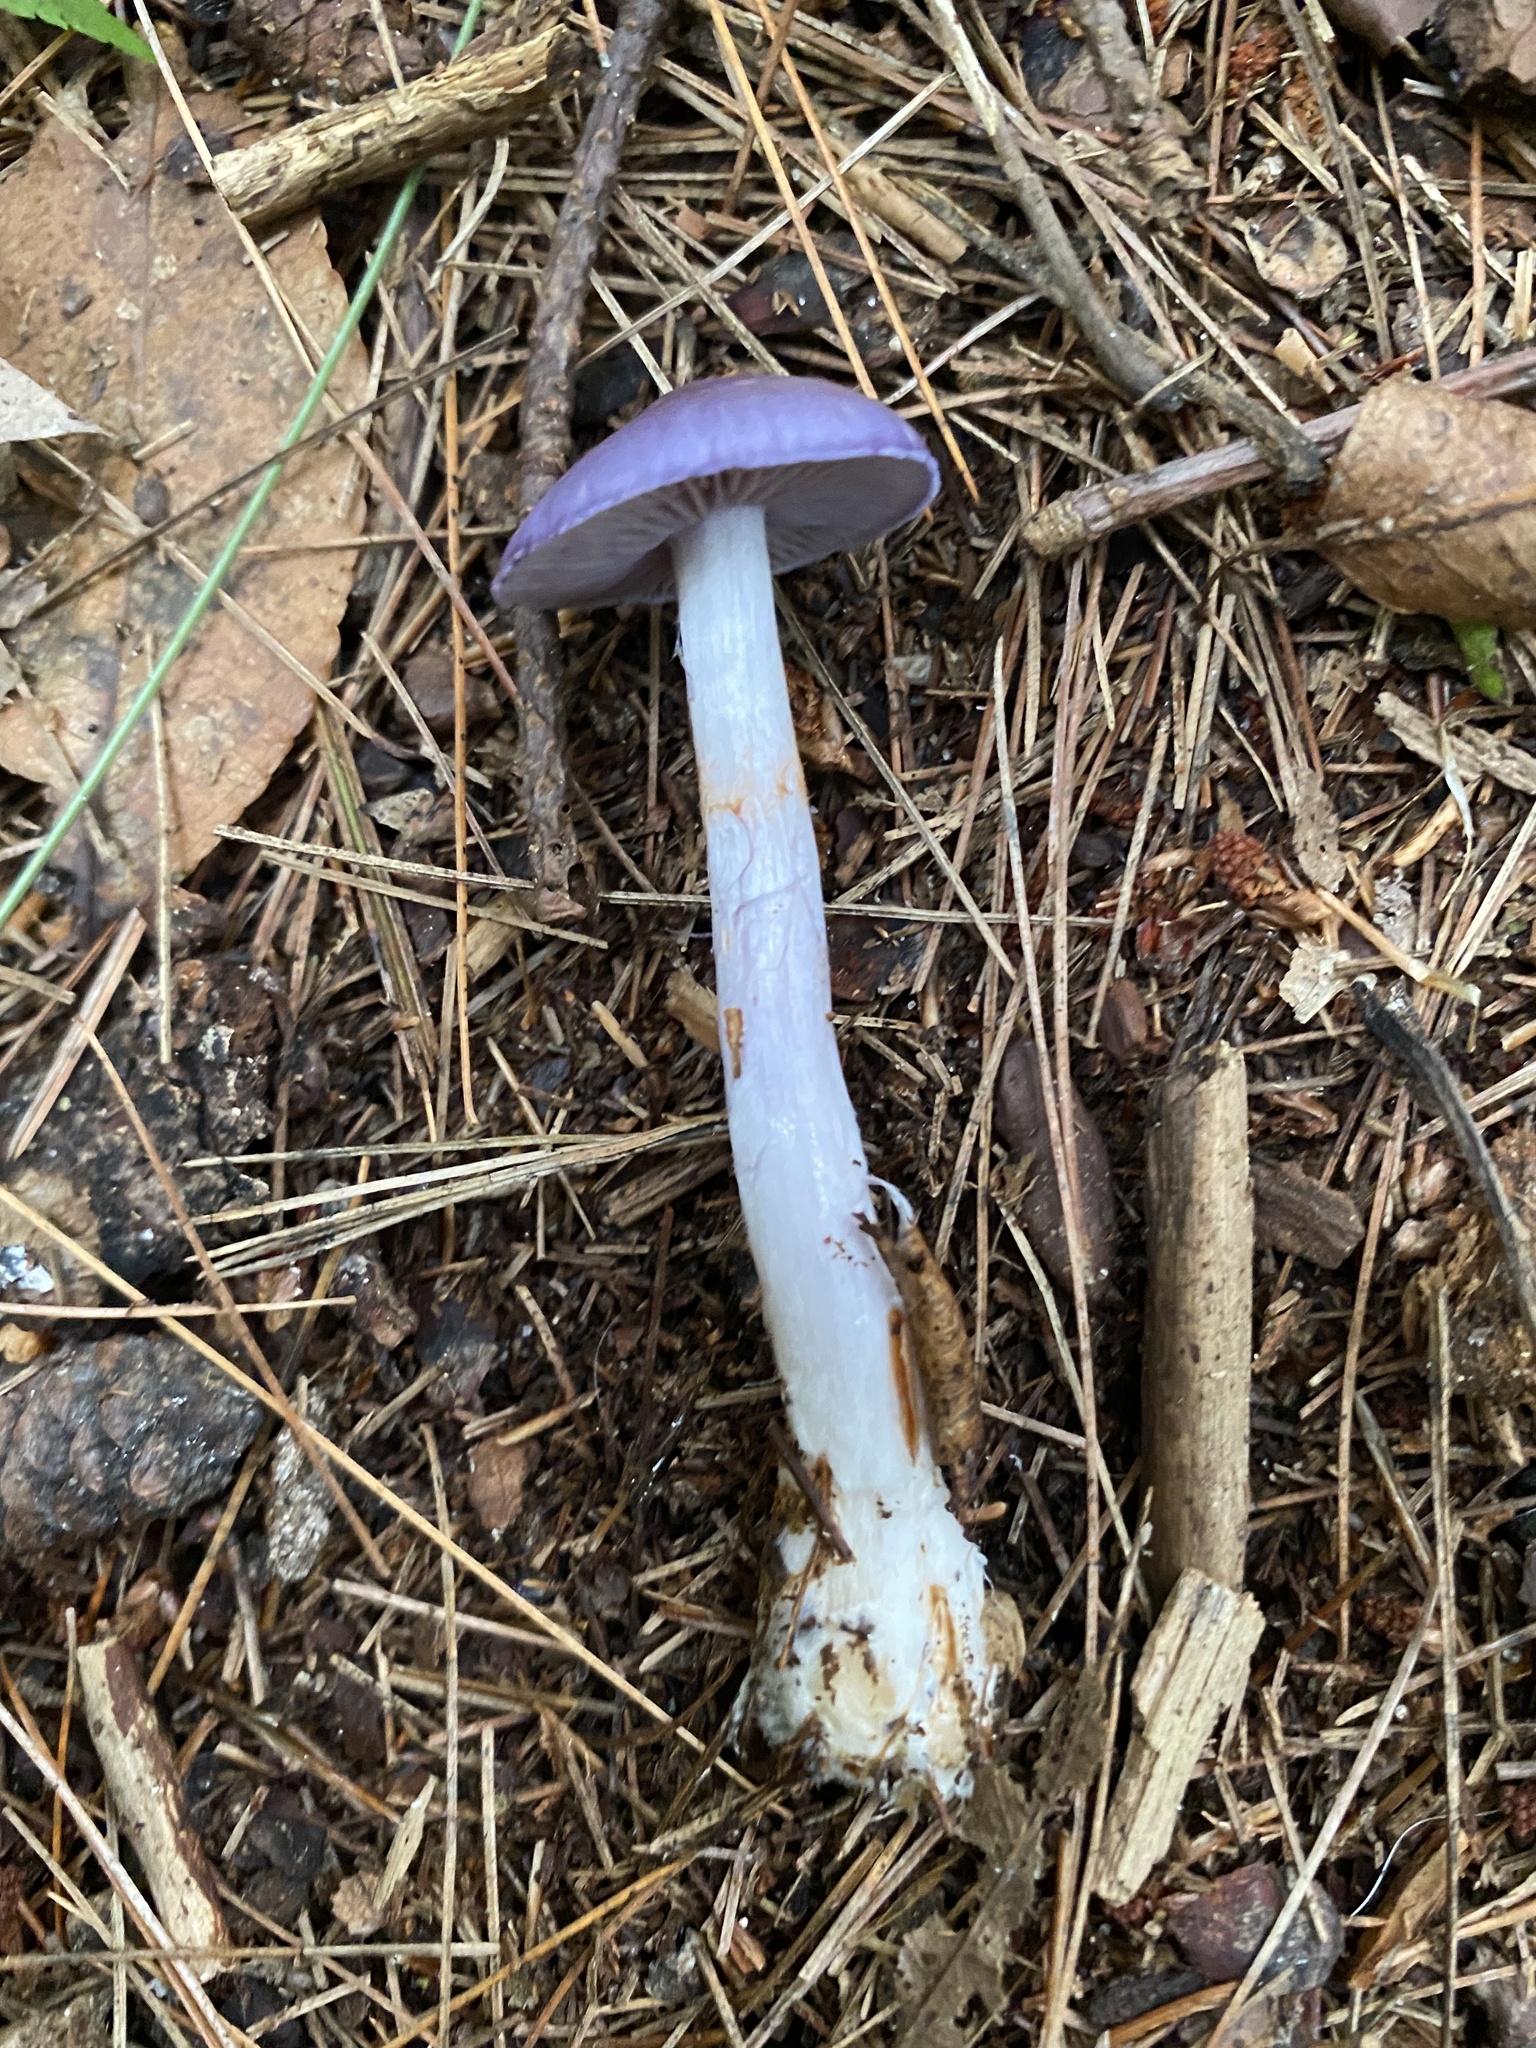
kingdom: Fungi
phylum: Basidiomycota
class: Agaricomycetes
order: Agaricales
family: Cortinariaceae
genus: Cortinarius
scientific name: Cortinarius iodes
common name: Viscid violet cort
